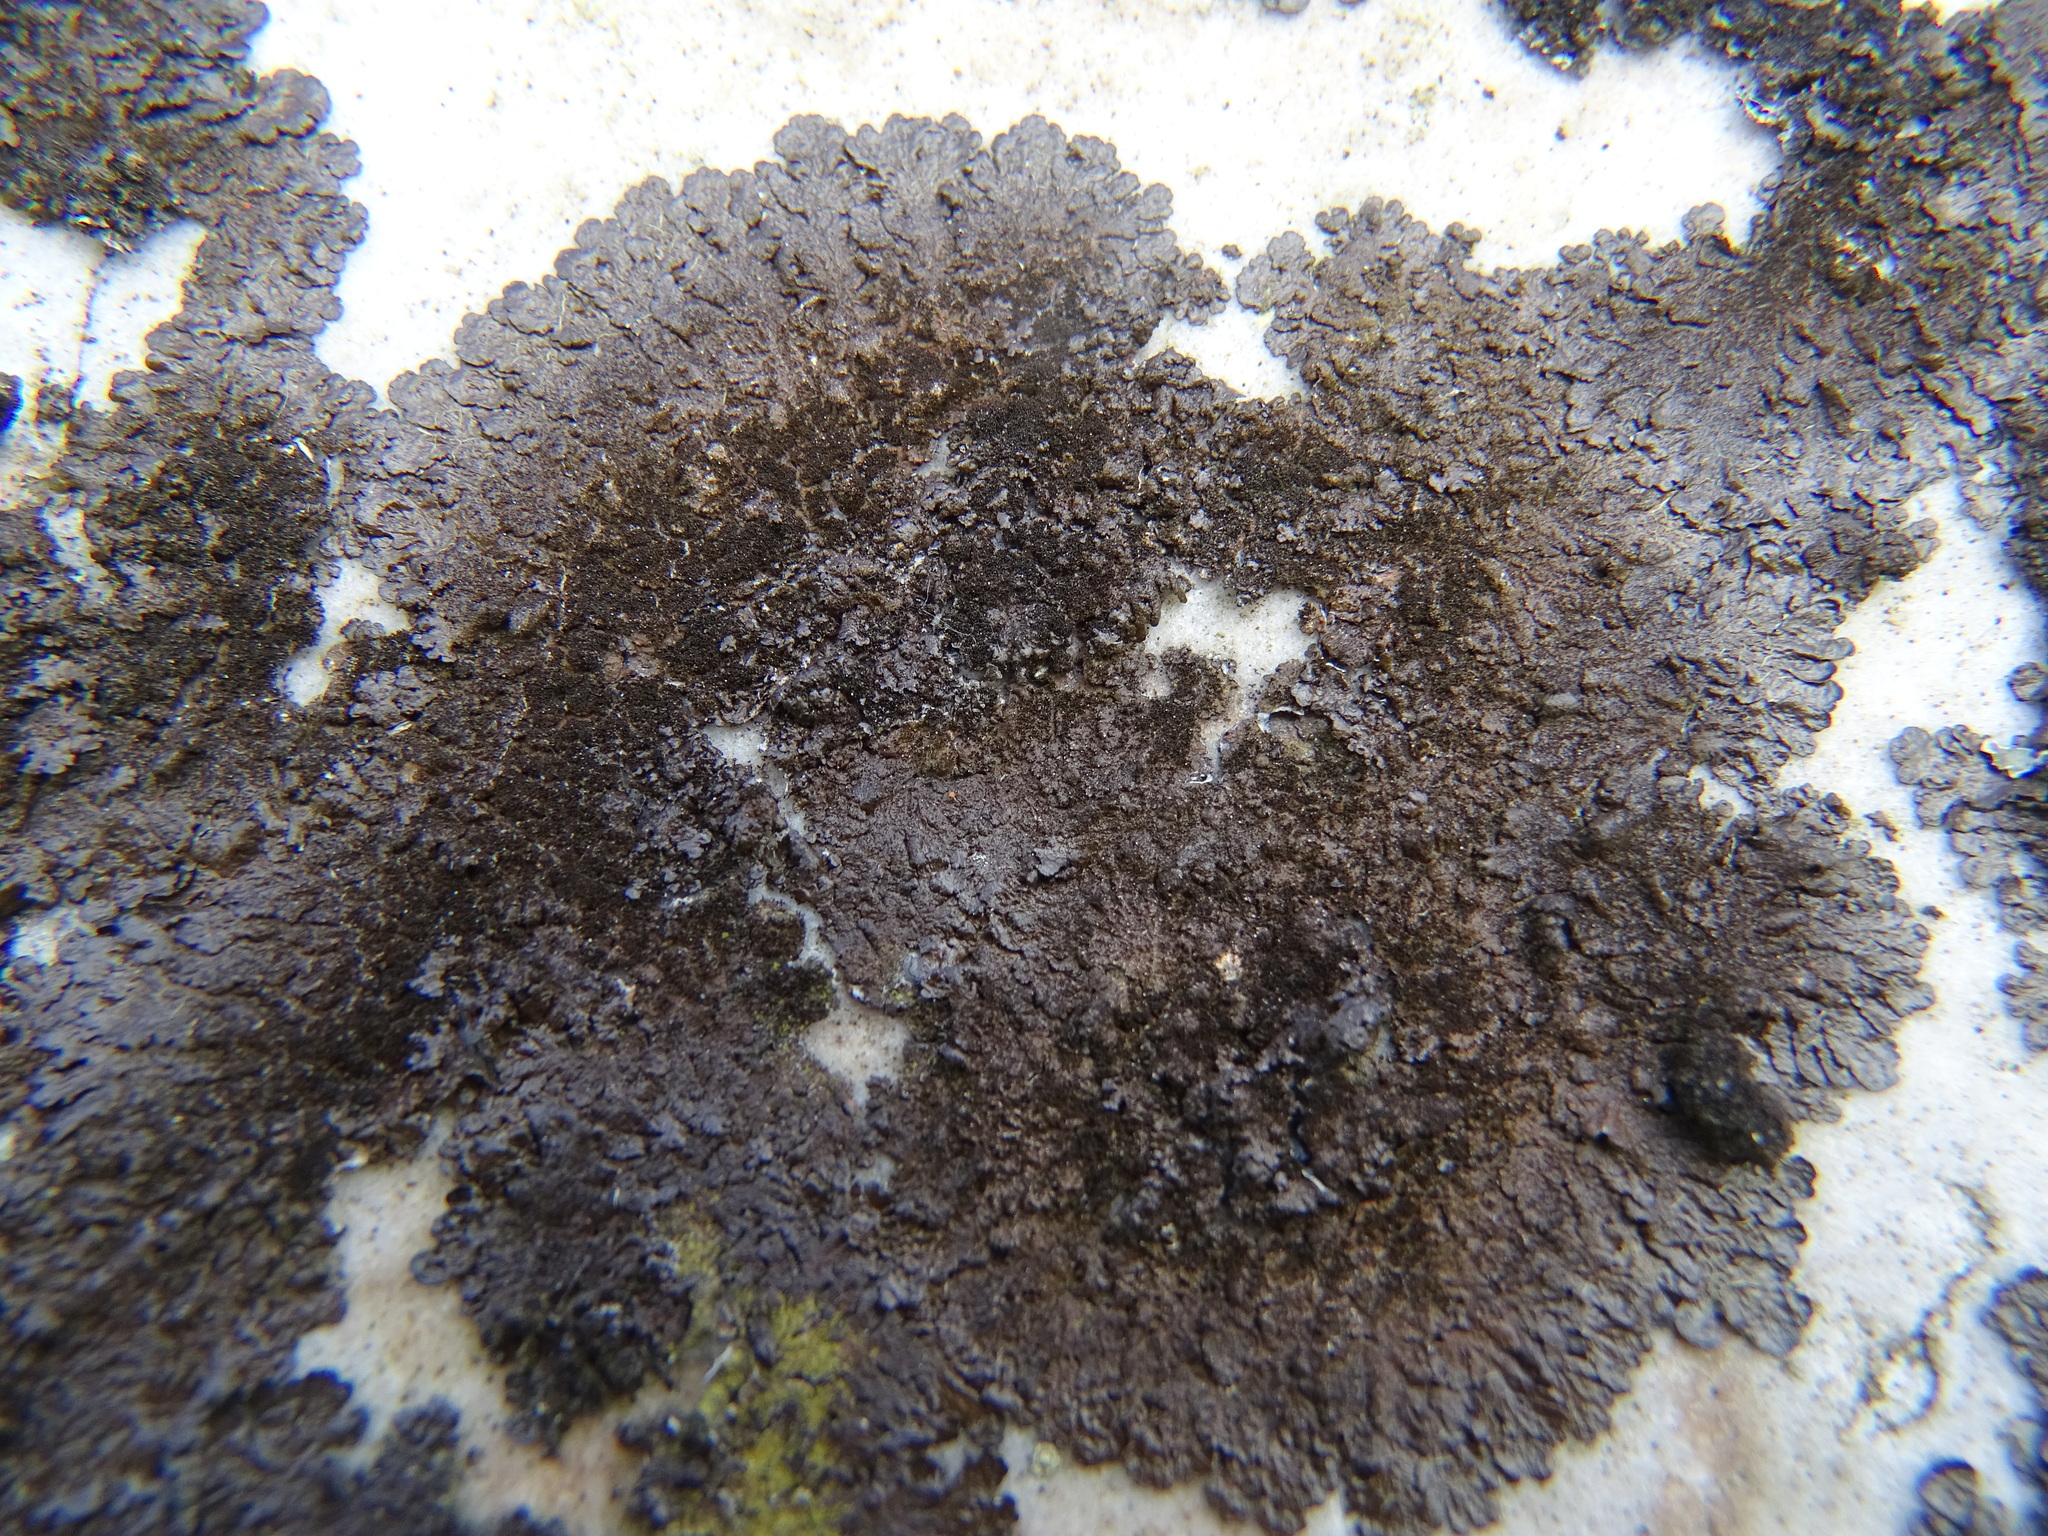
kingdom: Fungi
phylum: Ascomycota
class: Lecanoromycetes
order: Lecanorales
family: Parmeliaceae
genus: Melanelixia
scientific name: Melanelixia fuliginosa
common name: Shiny camouflage lichen
